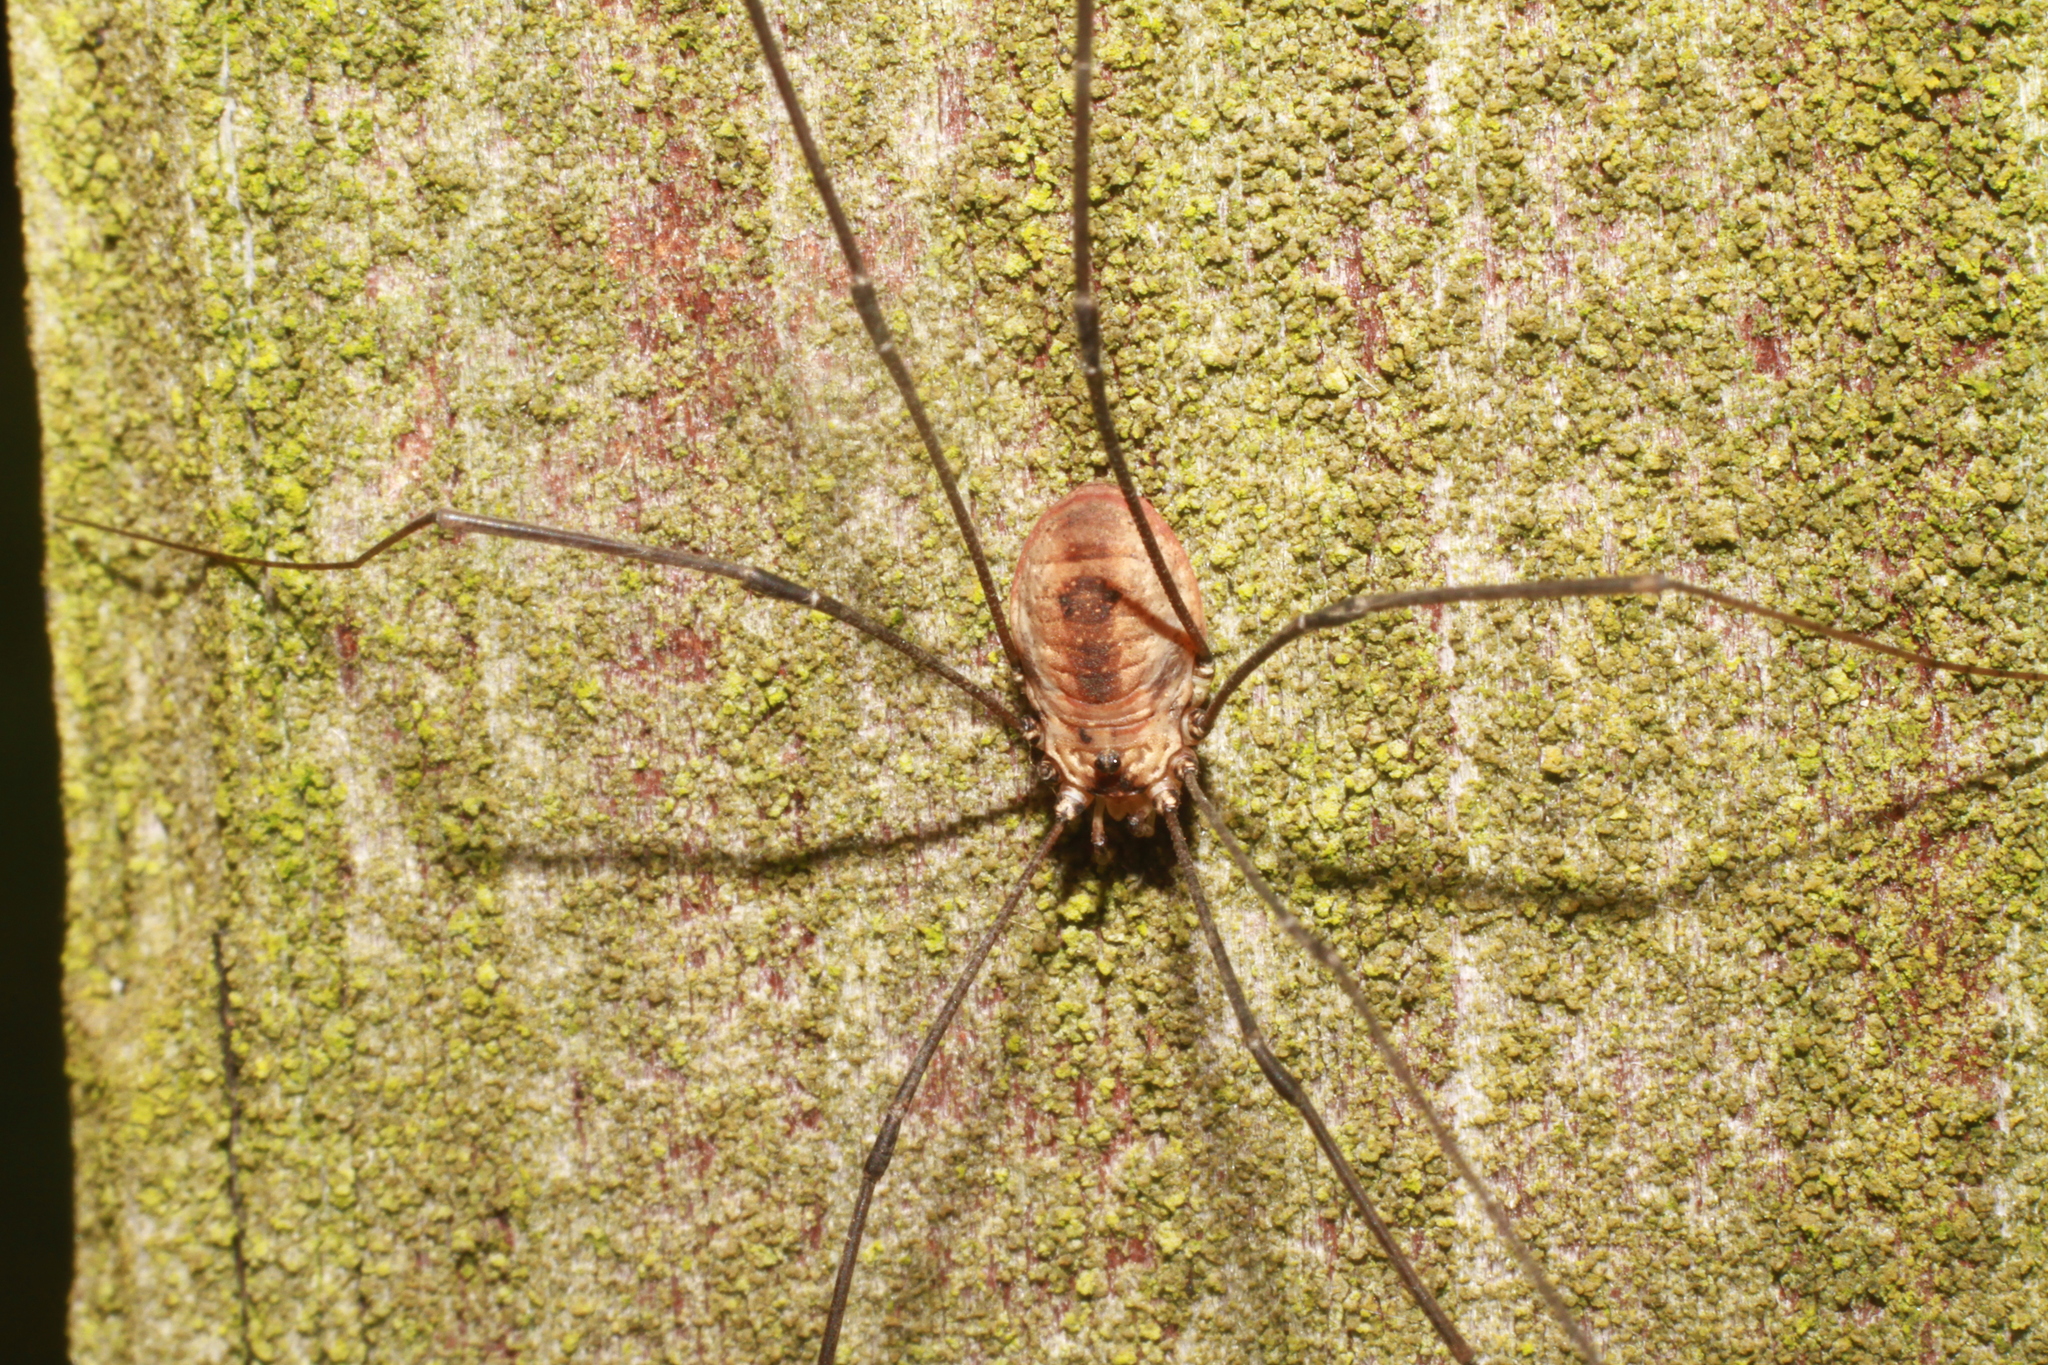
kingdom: Animalia
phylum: Arthropoda
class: Arachnida
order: Opiliones
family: Sclerosomatidae
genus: Leiobunum
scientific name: Leiobunum rotundum
